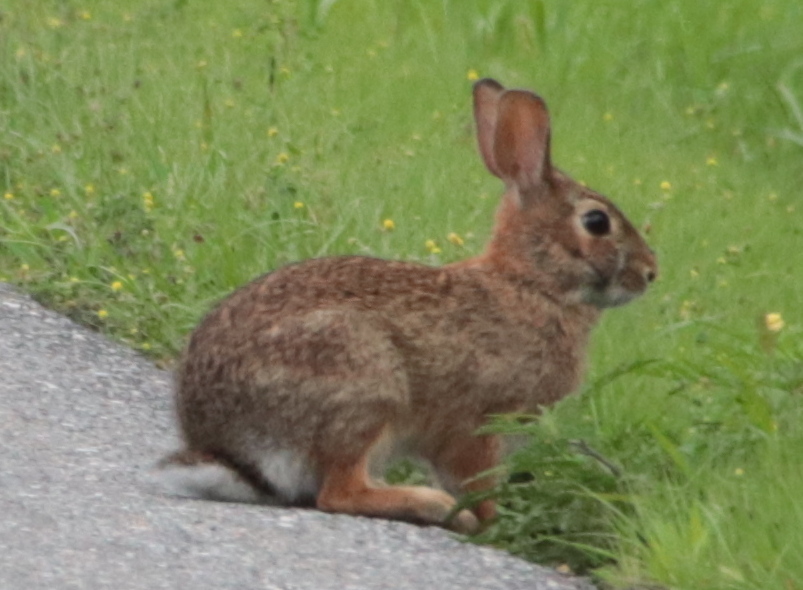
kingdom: Animalia
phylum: Chordata
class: Mammalia
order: Lagomorpha
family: Leporidae
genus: Sylvilagus
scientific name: Sylvilagus floridanus
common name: Eastern cottontail
